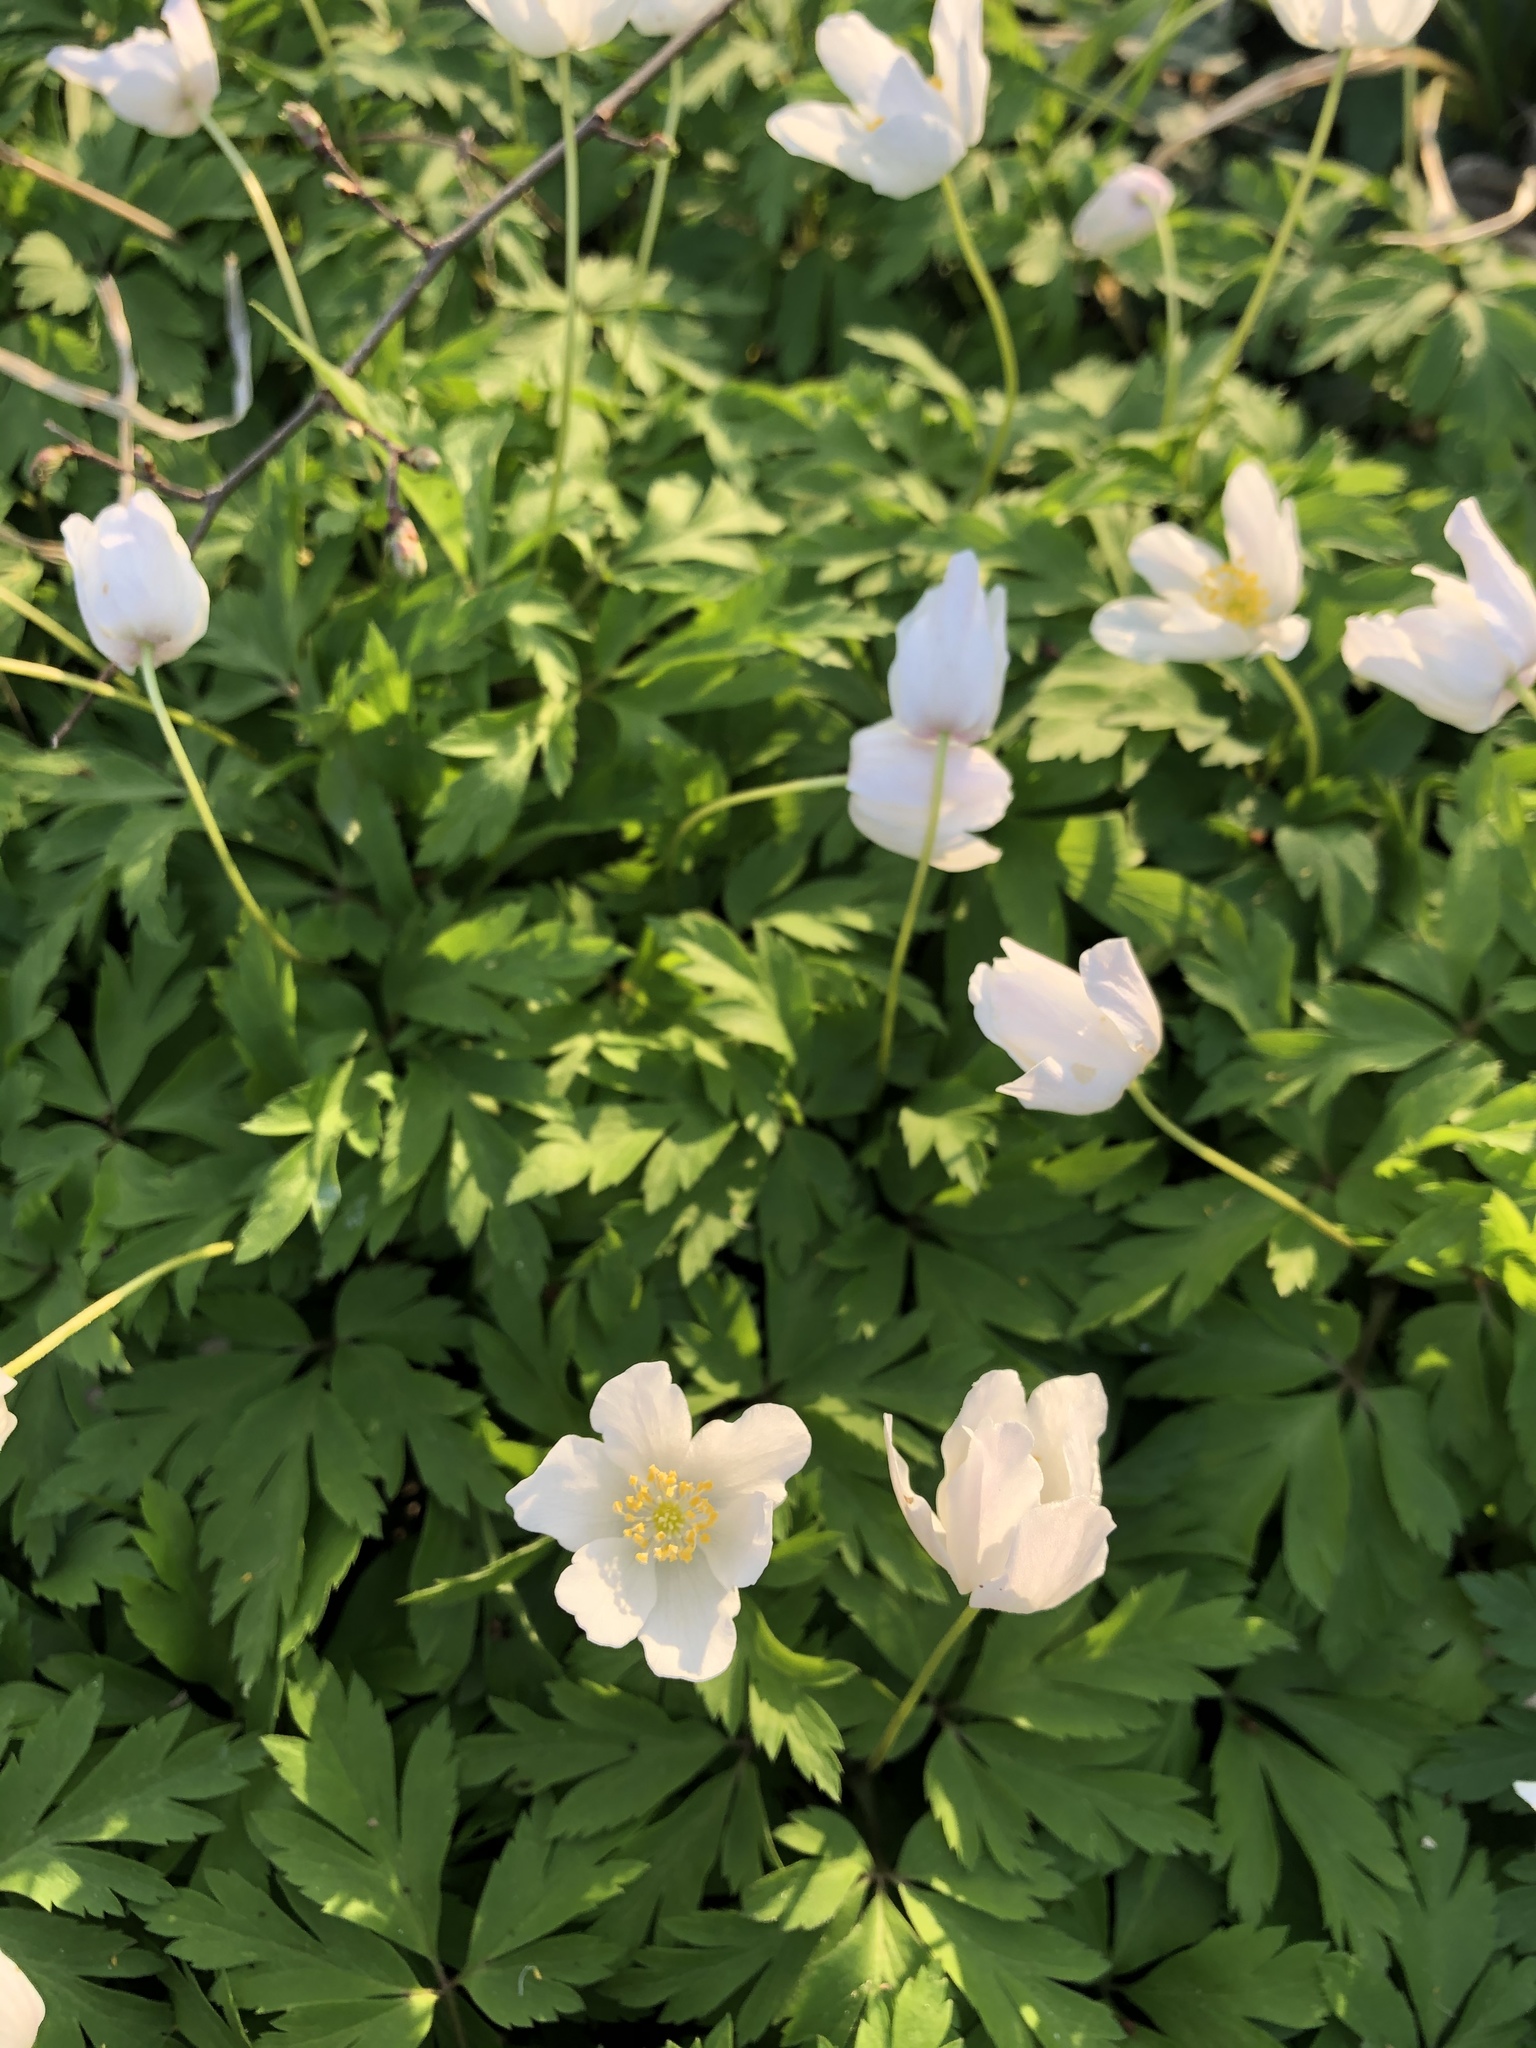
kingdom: Plantae
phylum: Tracheophyta
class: Magnoliopsida
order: Ranunculales
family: Ranunculaceae
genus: Anemone
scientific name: Anemone nemorosa
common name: Wood anemone
